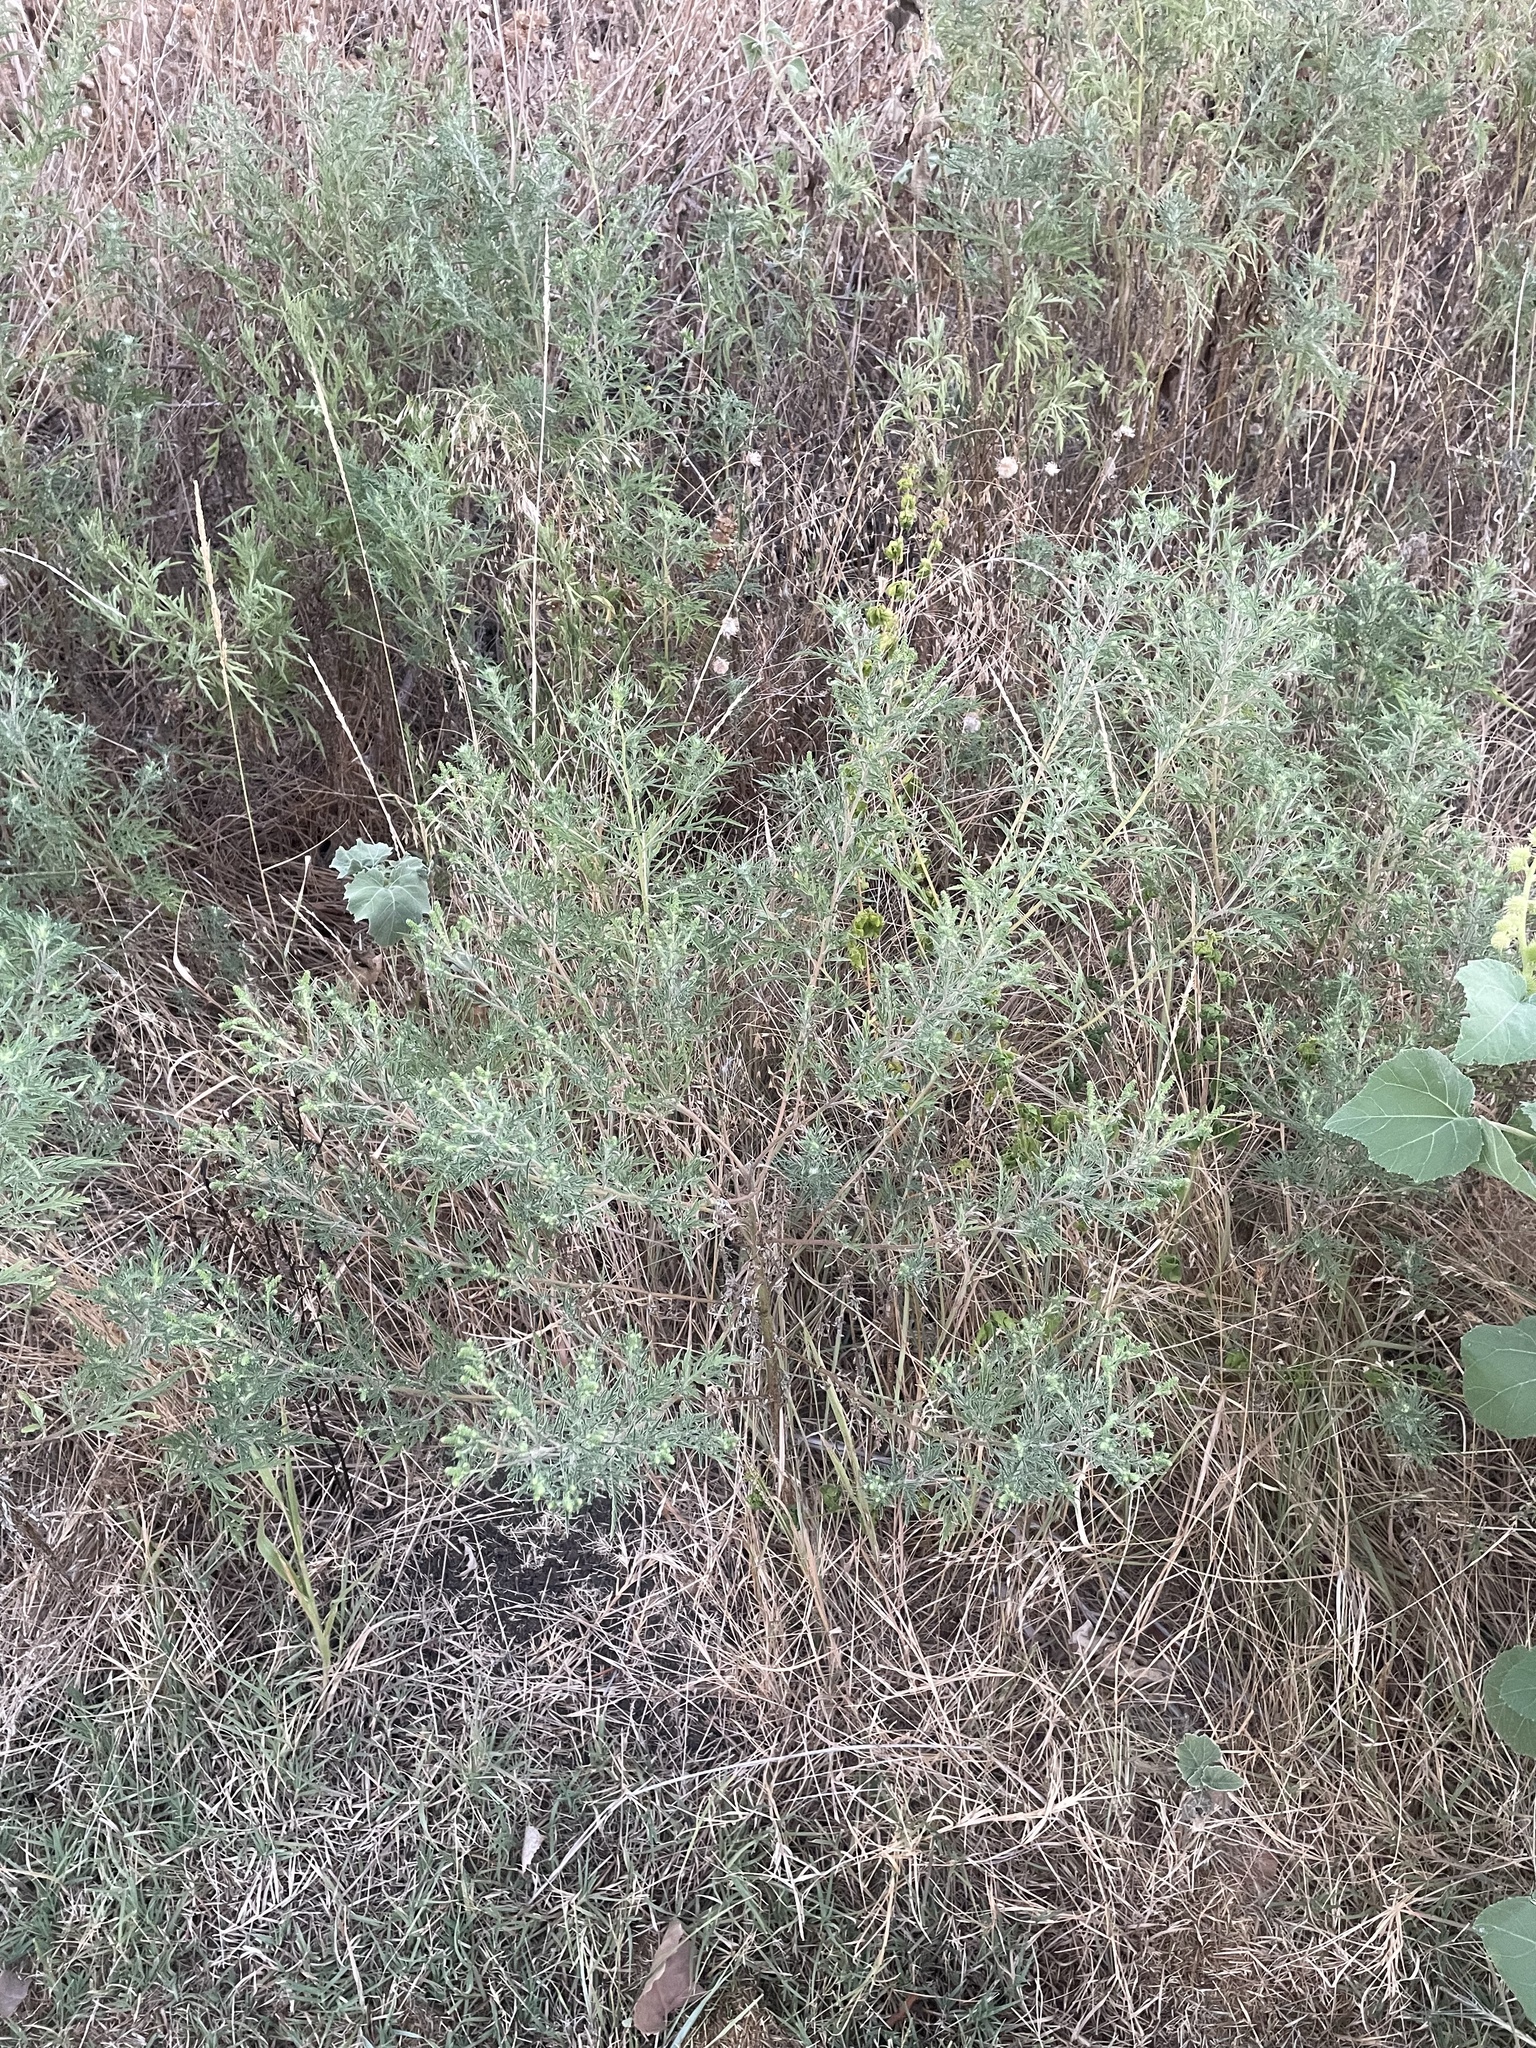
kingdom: Plantae
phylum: Tracheophyta
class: Magnoliopsida
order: Asterales
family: Asteraceae
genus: Ambrosia
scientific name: Ambrosia artemisiifolia
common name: Annual ragweed
